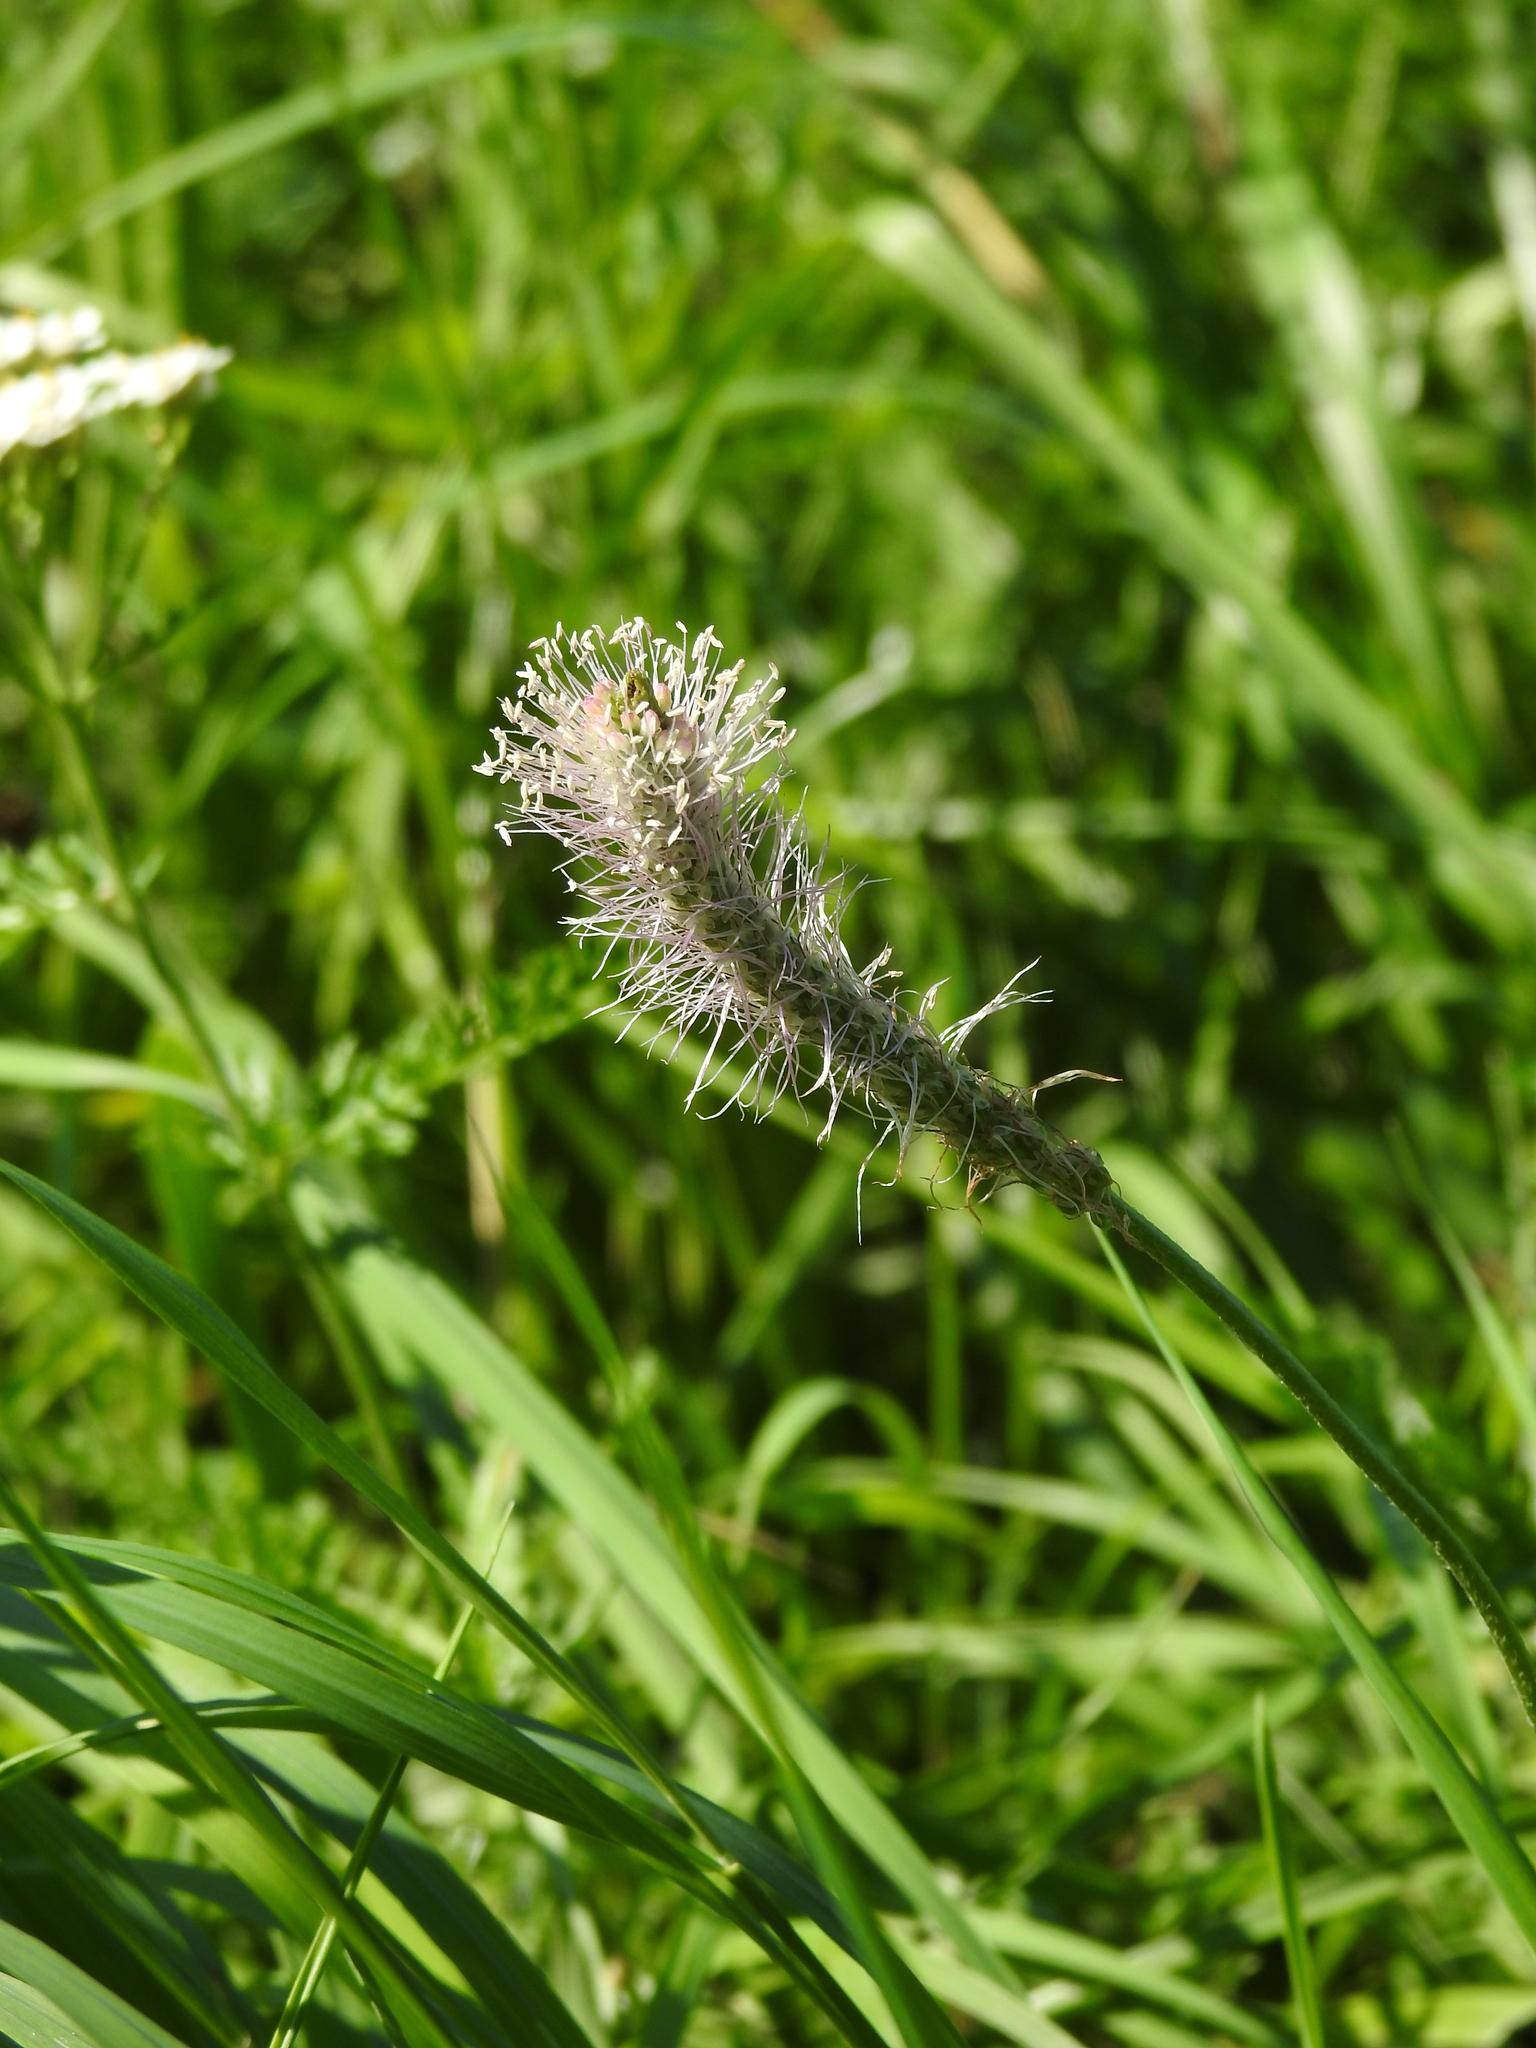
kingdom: Plantae
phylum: Tracheophyta
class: Magnoliopsida
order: Lamiales
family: Plantaginaceae
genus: Plantago
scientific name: Plantago media
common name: Hoary plantain
